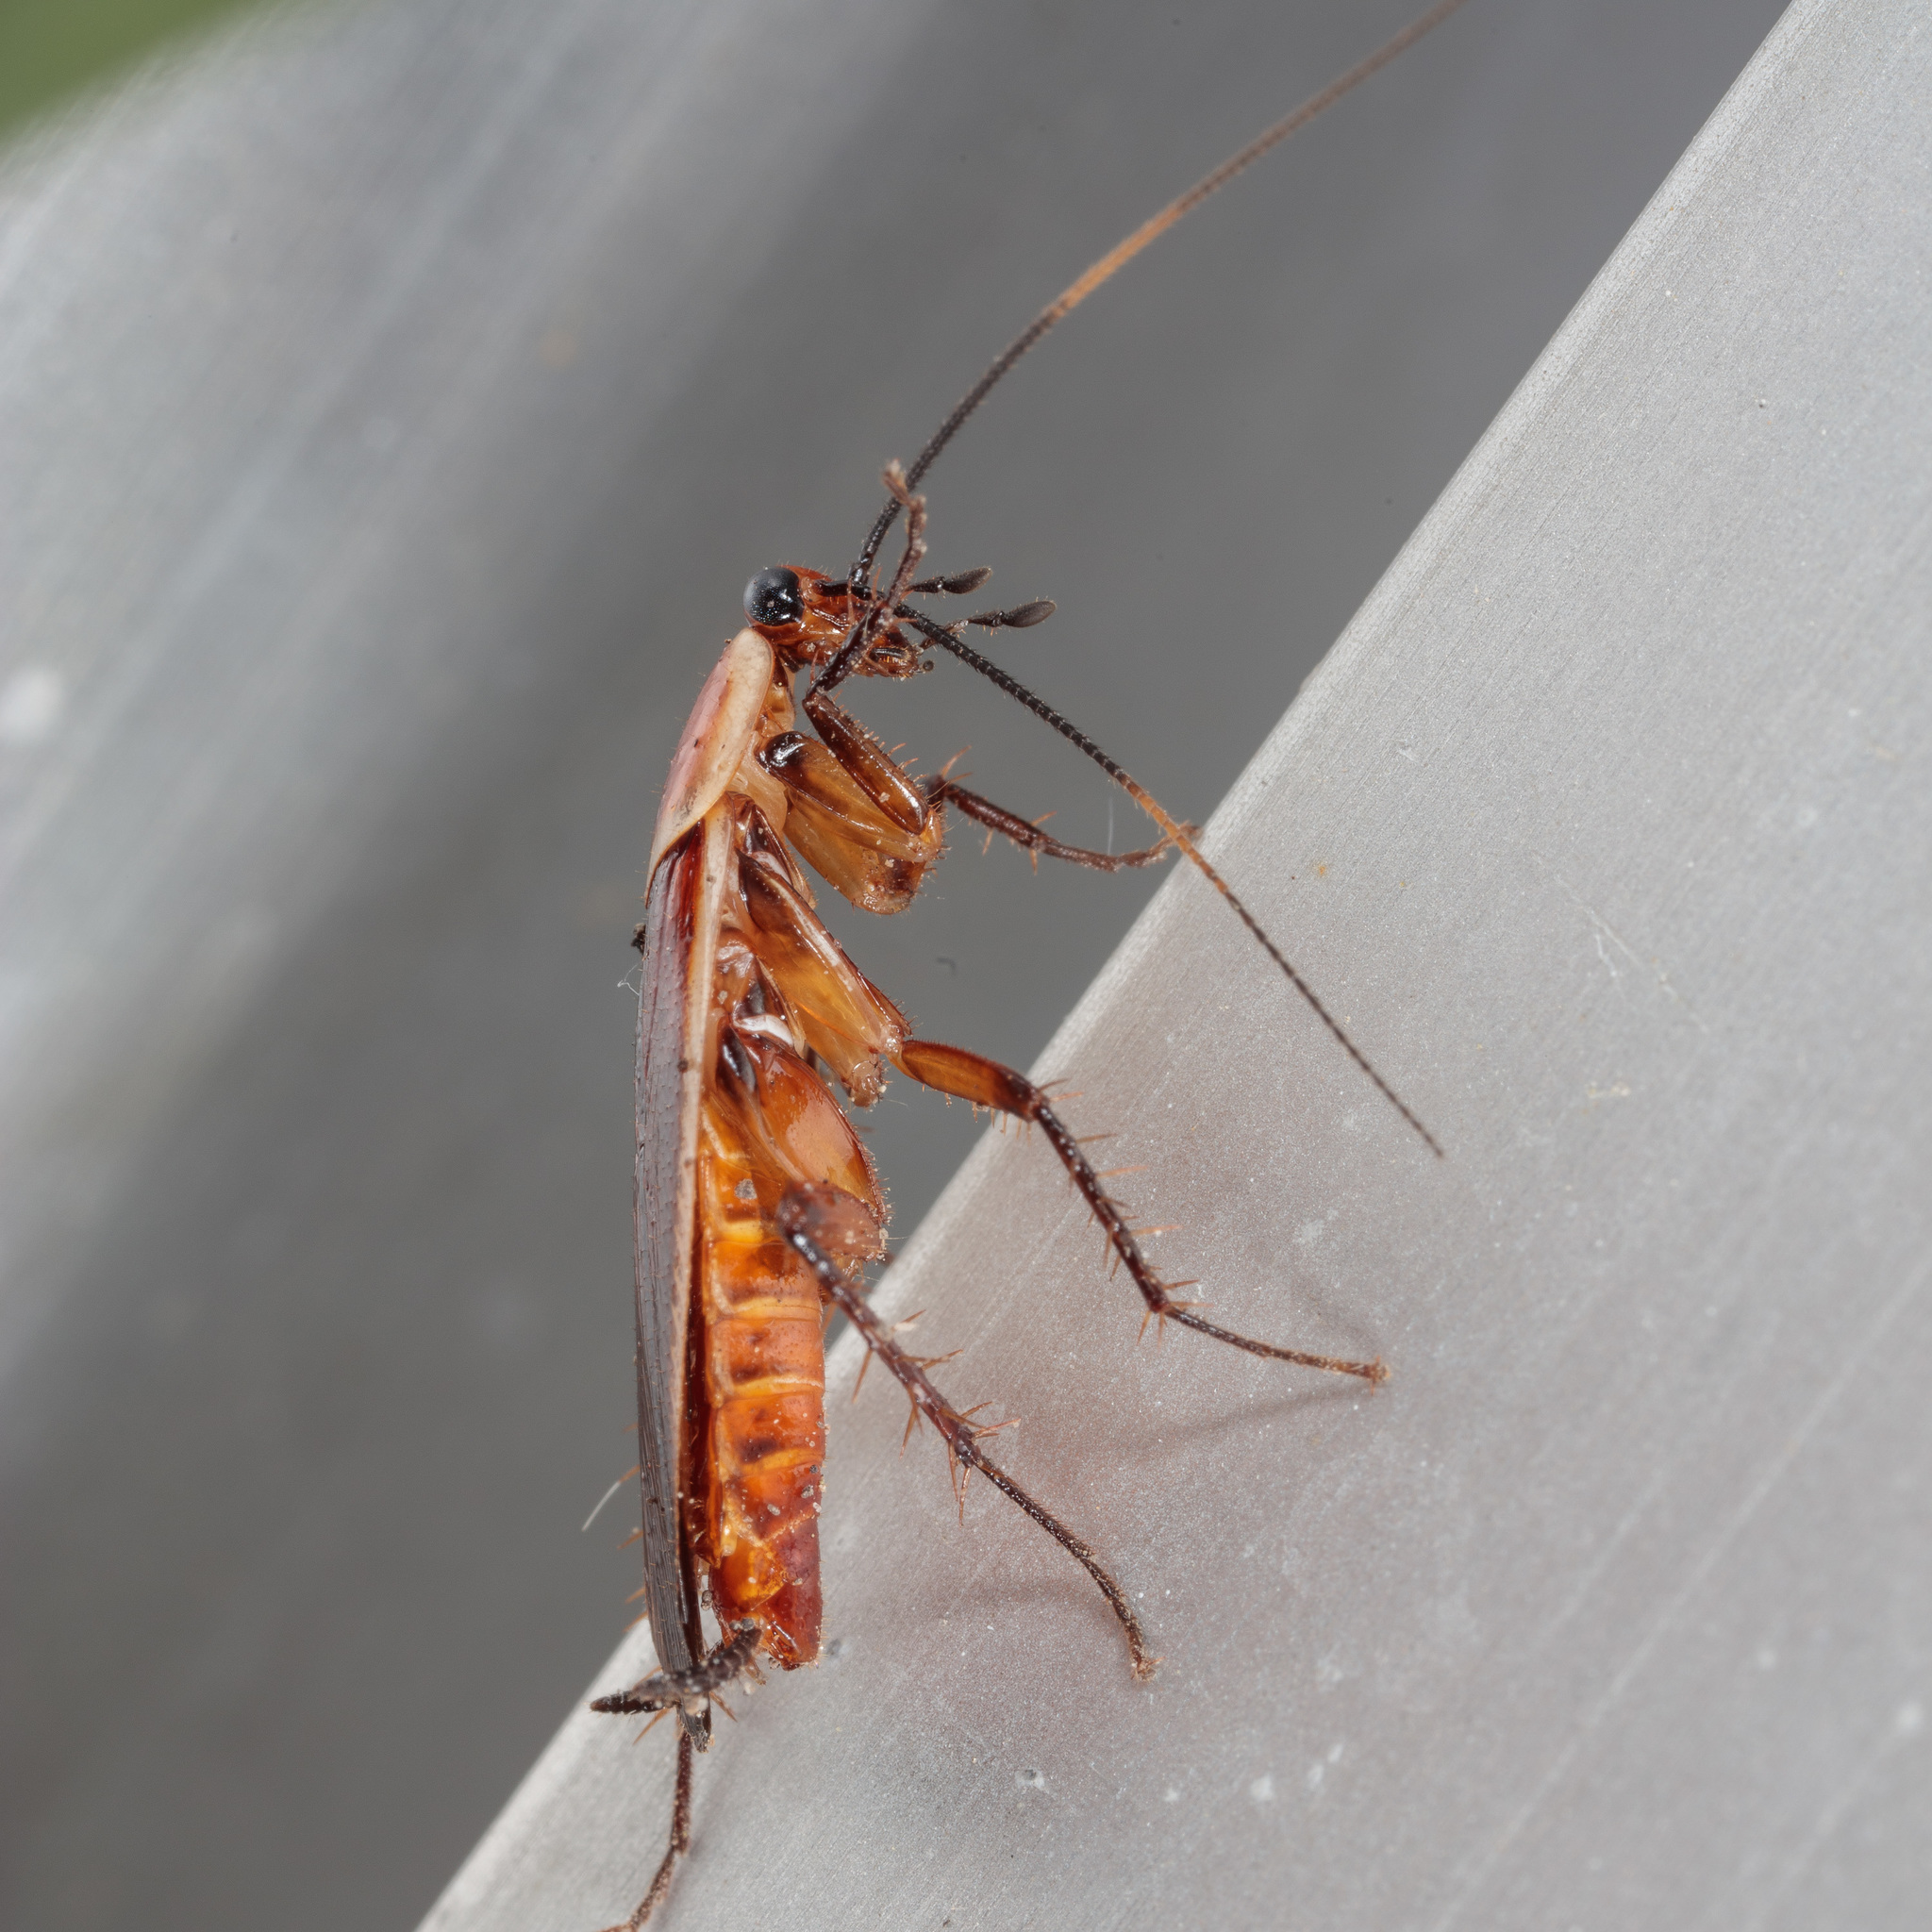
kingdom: Animalia
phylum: Arthropoda
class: Insecta
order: Blattodea
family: Ectobiidae
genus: Pseudomops
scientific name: Pseudomops septentrionalis
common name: Pale-bordered field cockroach
